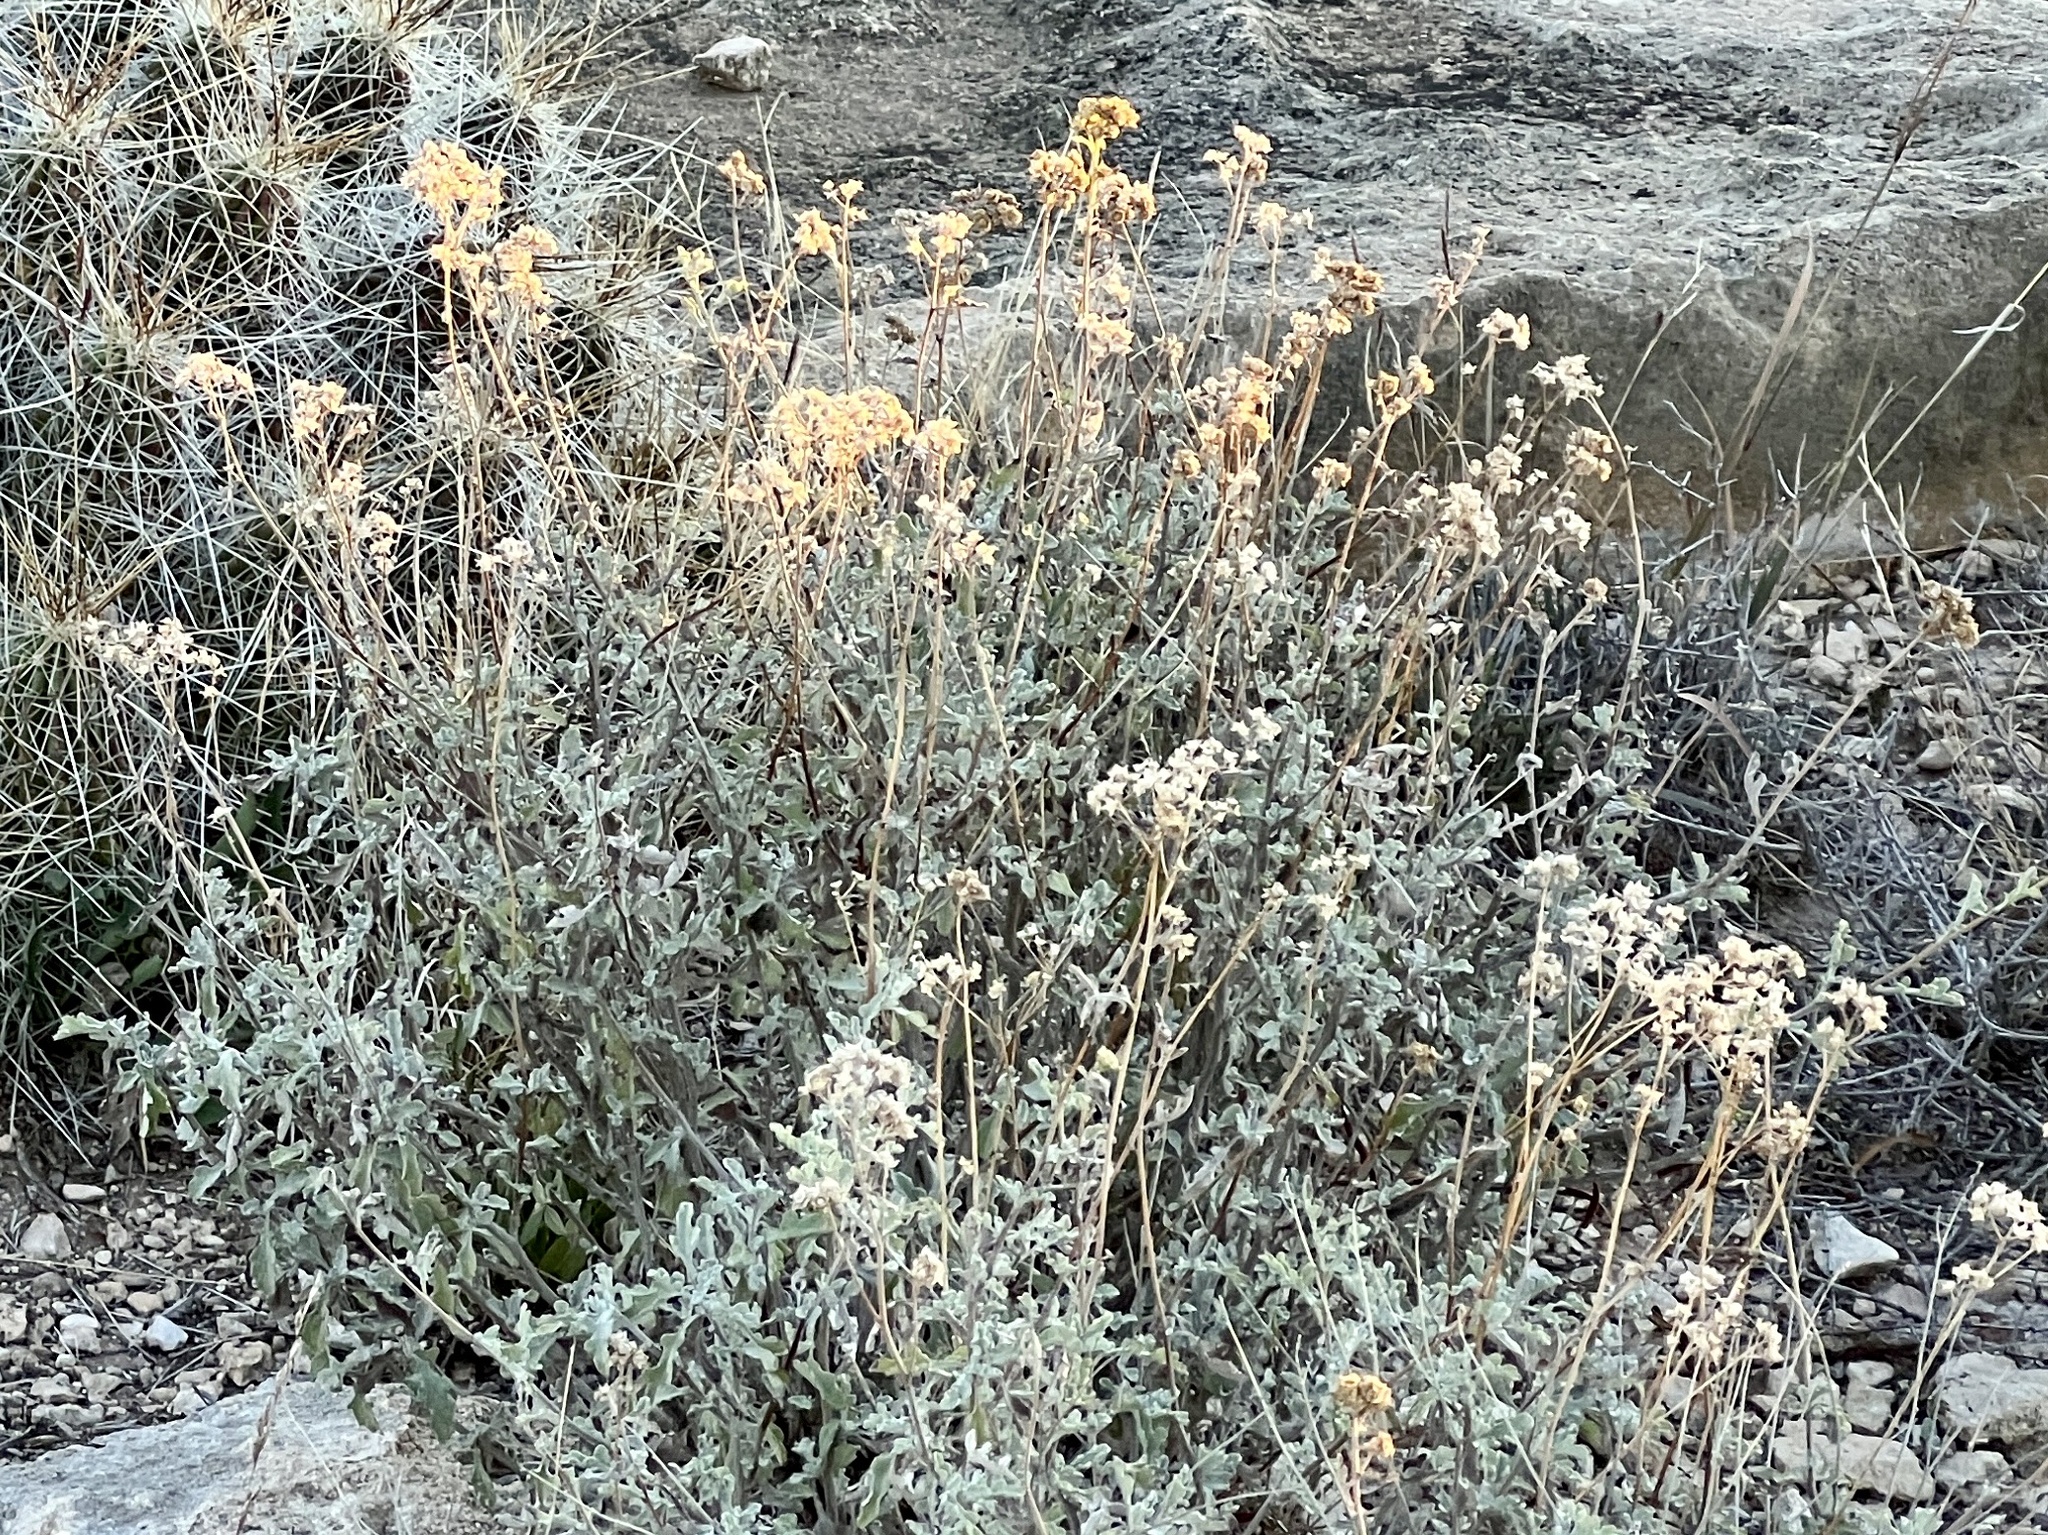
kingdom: Plantae
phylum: Tracheophyta
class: Magnoliopsida
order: Asterales
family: Asteraceae
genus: Parthenium
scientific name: Parthenium incanum
